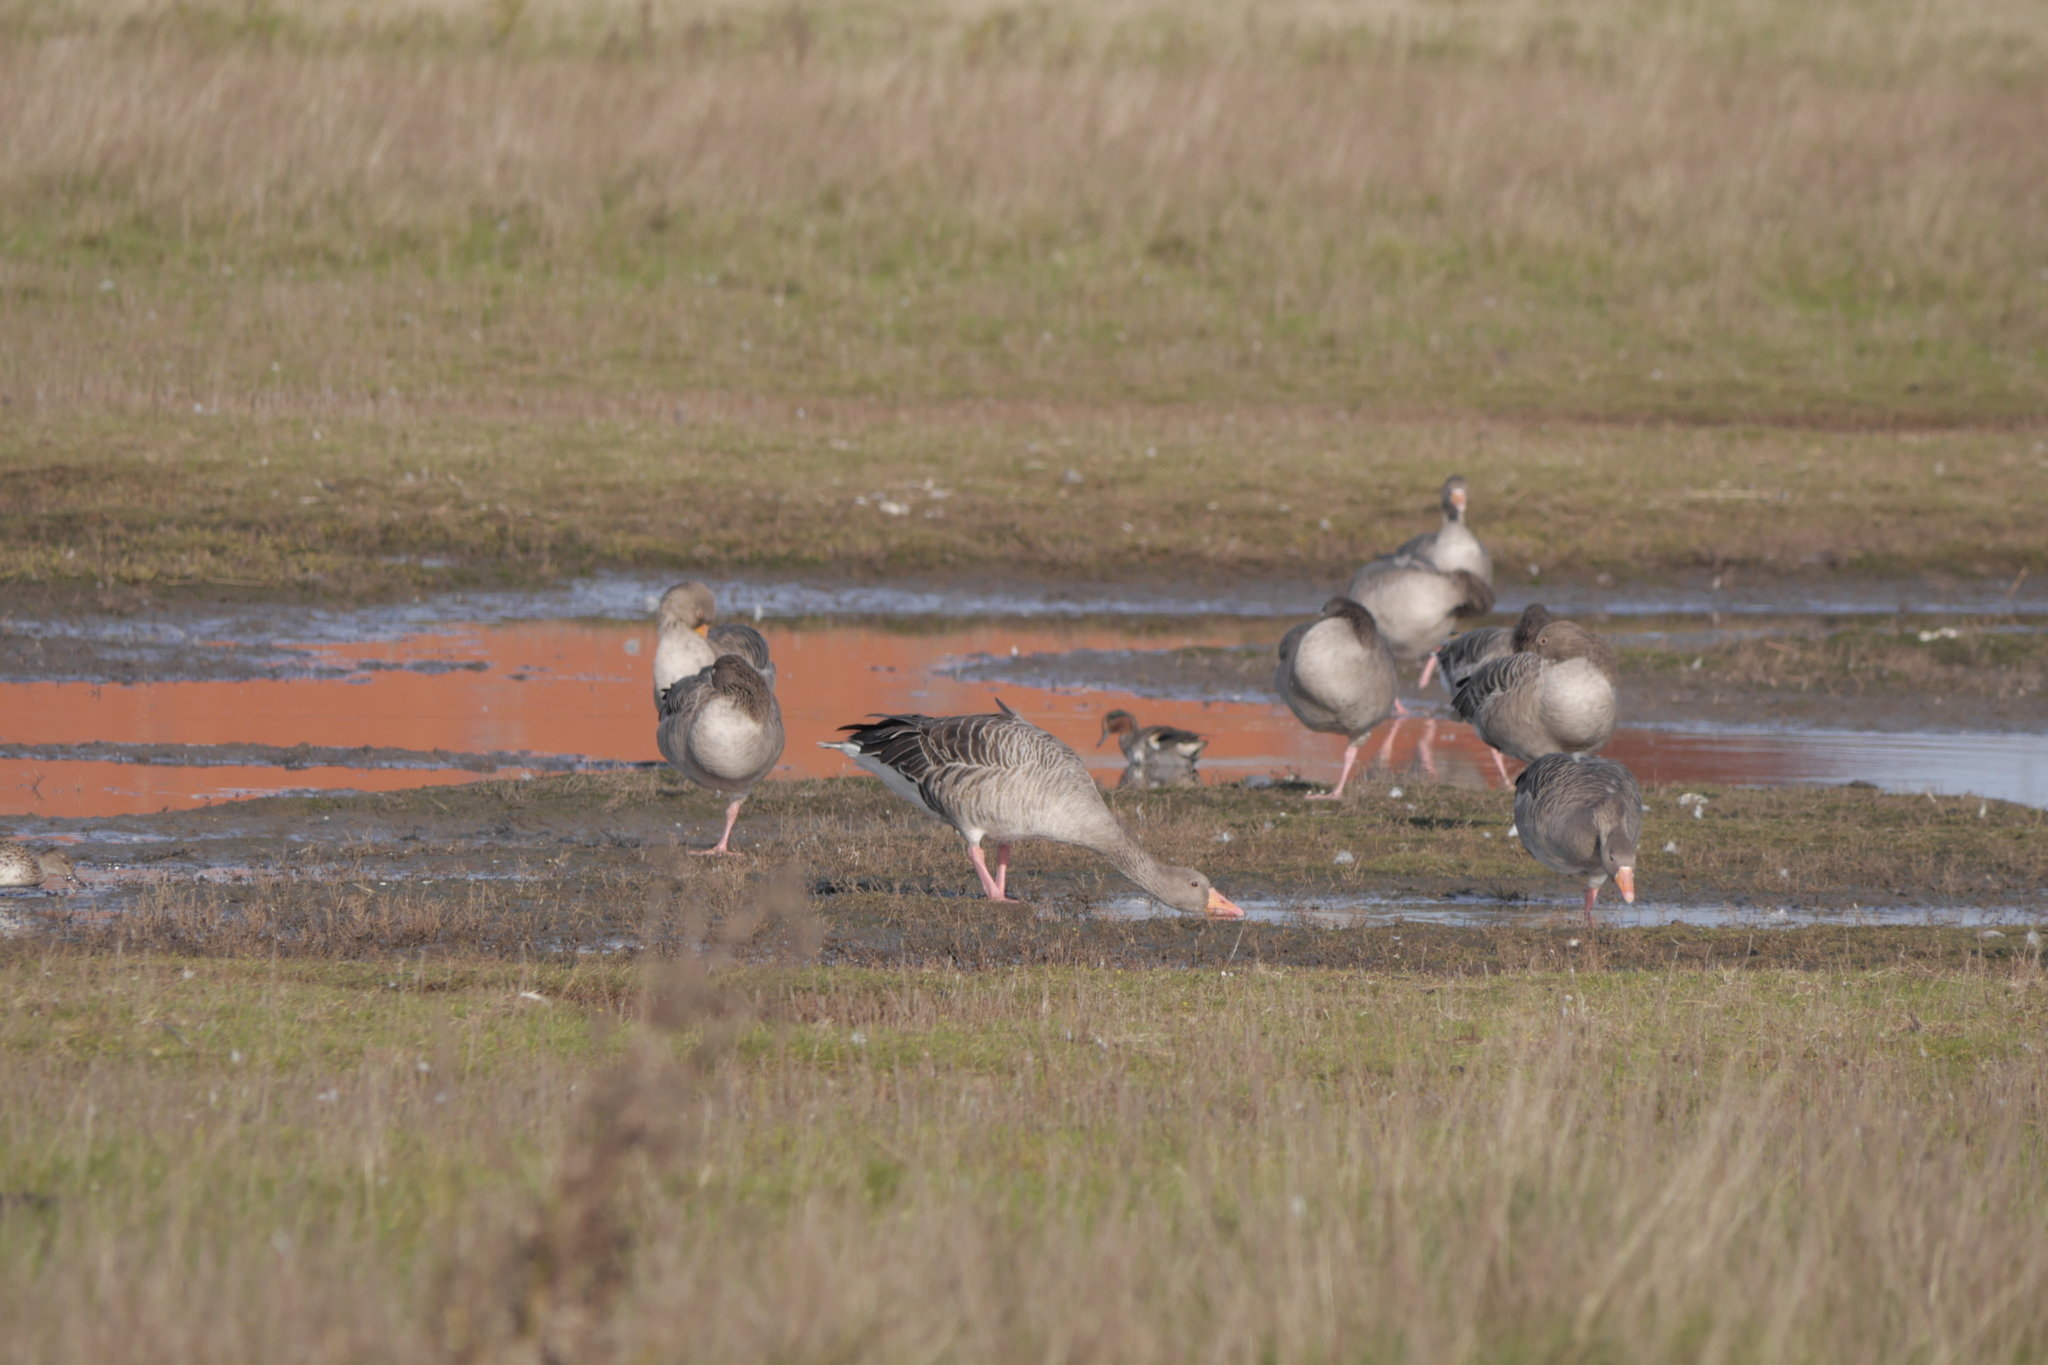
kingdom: Animalia
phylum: Chordata
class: Aves
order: Anseriformes
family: Anatidae
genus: Anser
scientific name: Anser anser
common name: Greylag goose
